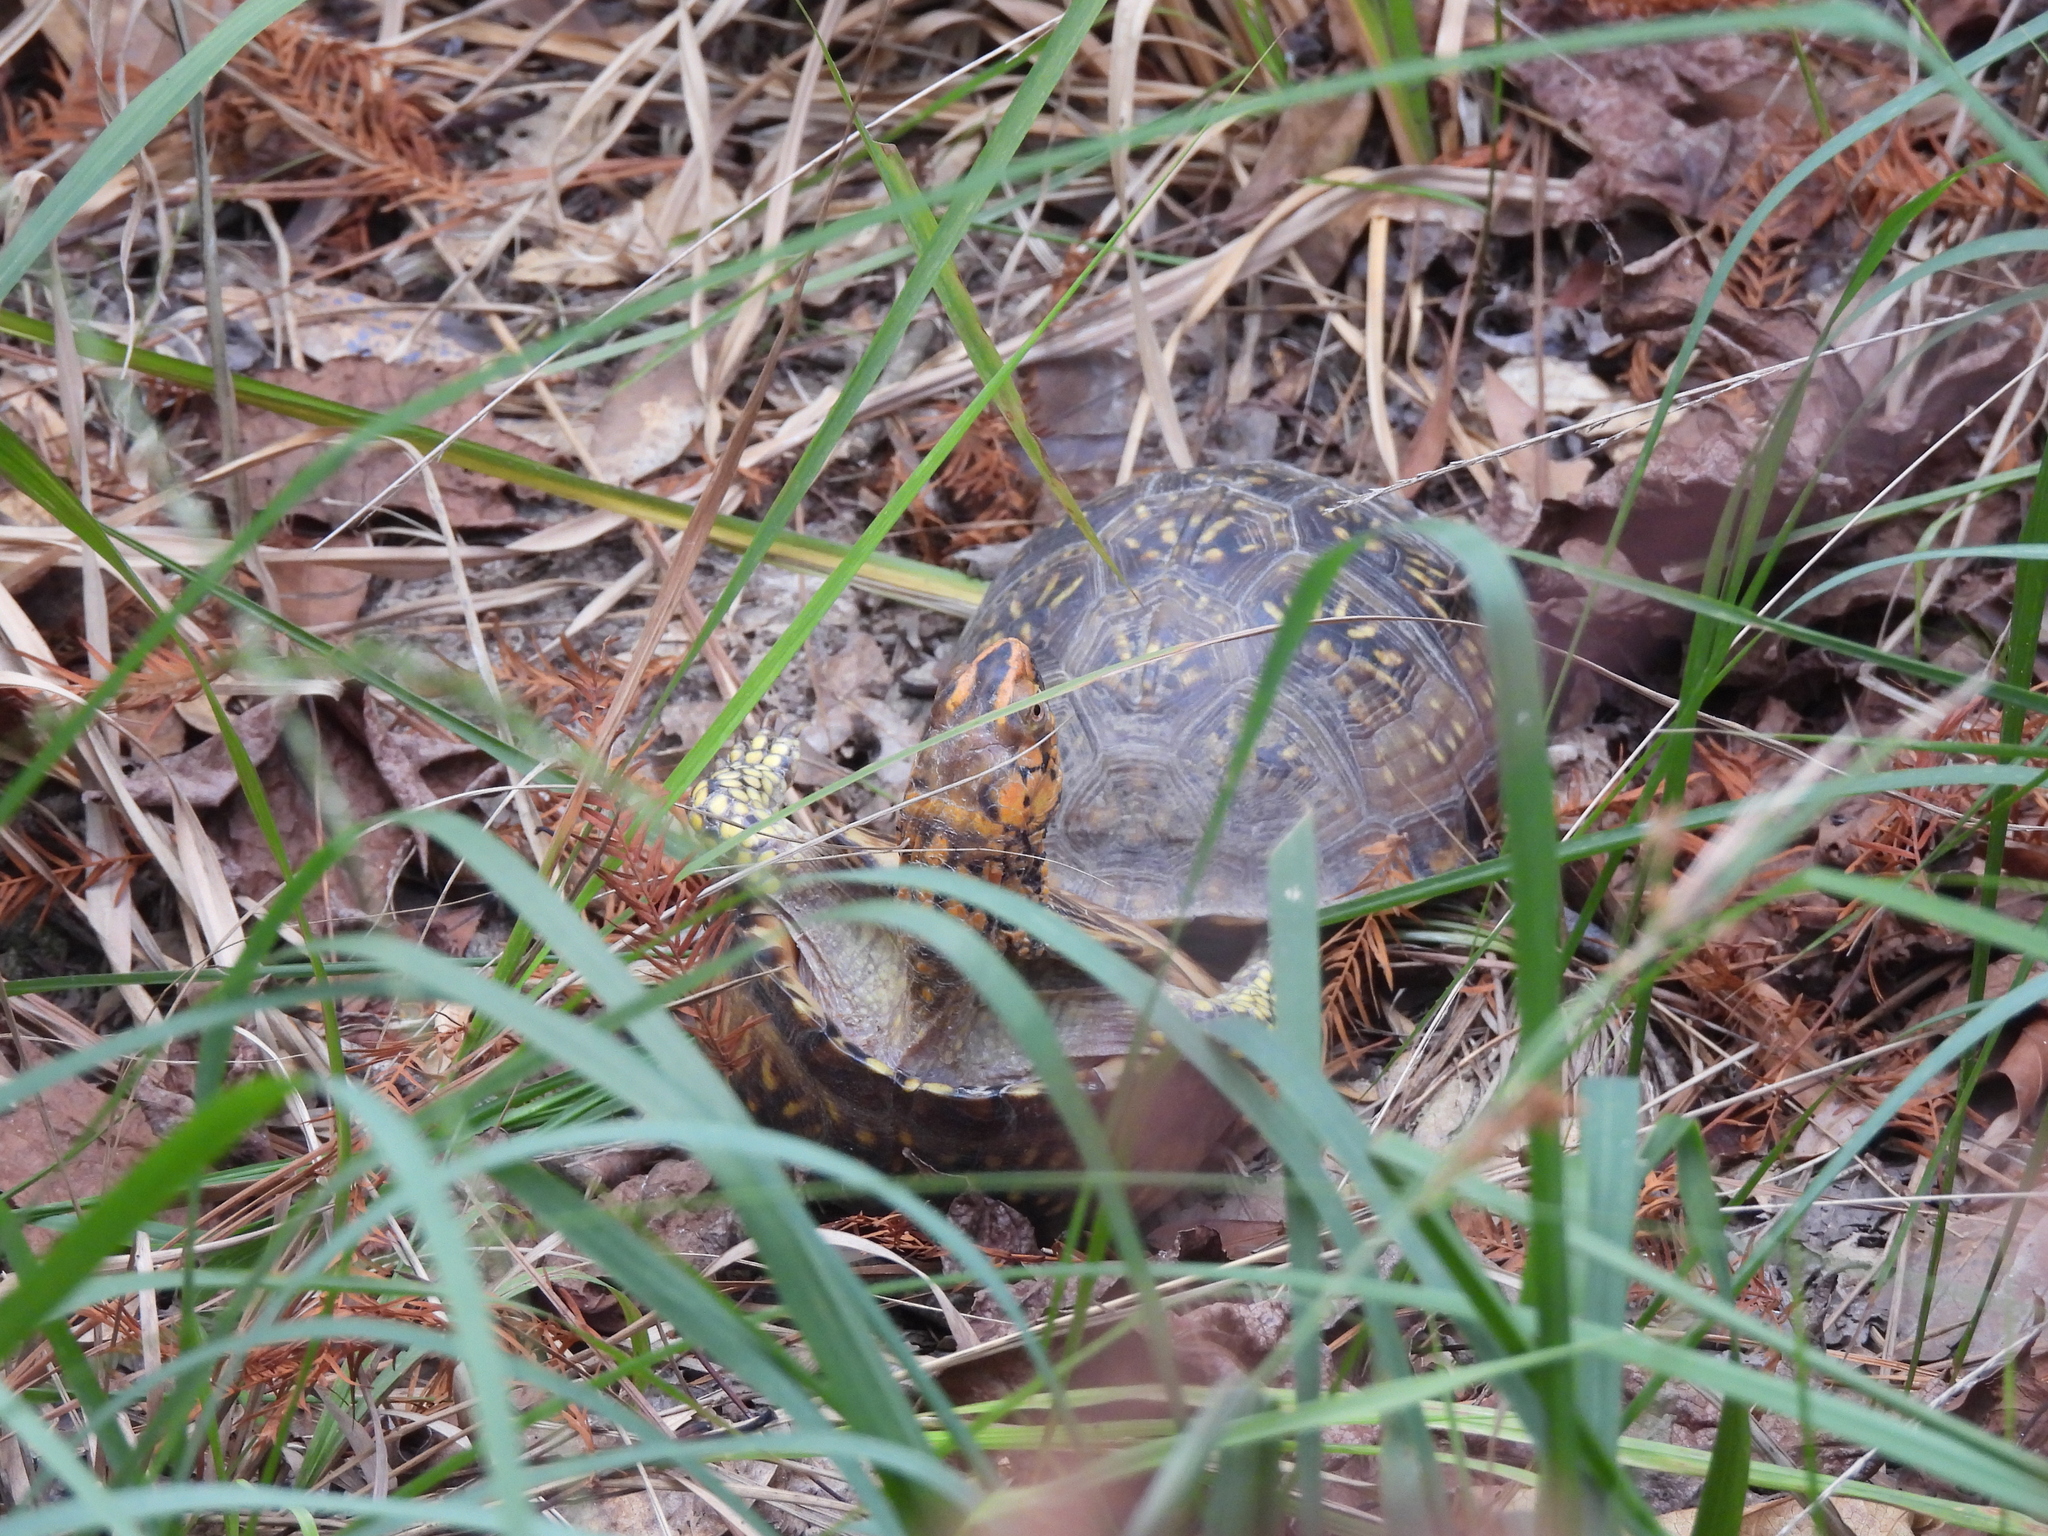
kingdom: Animalia
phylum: Chordata
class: Testudines
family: Emydidae
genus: Terrapene
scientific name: Terrapene carolina
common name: Common box turtle
